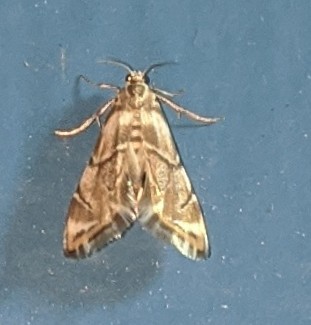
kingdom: Animalia
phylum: Arthropoda
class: Insecta
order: Lepidoptera
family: Crambidae
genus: Eoparargyractis
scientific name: Eoparargyractis plevie
